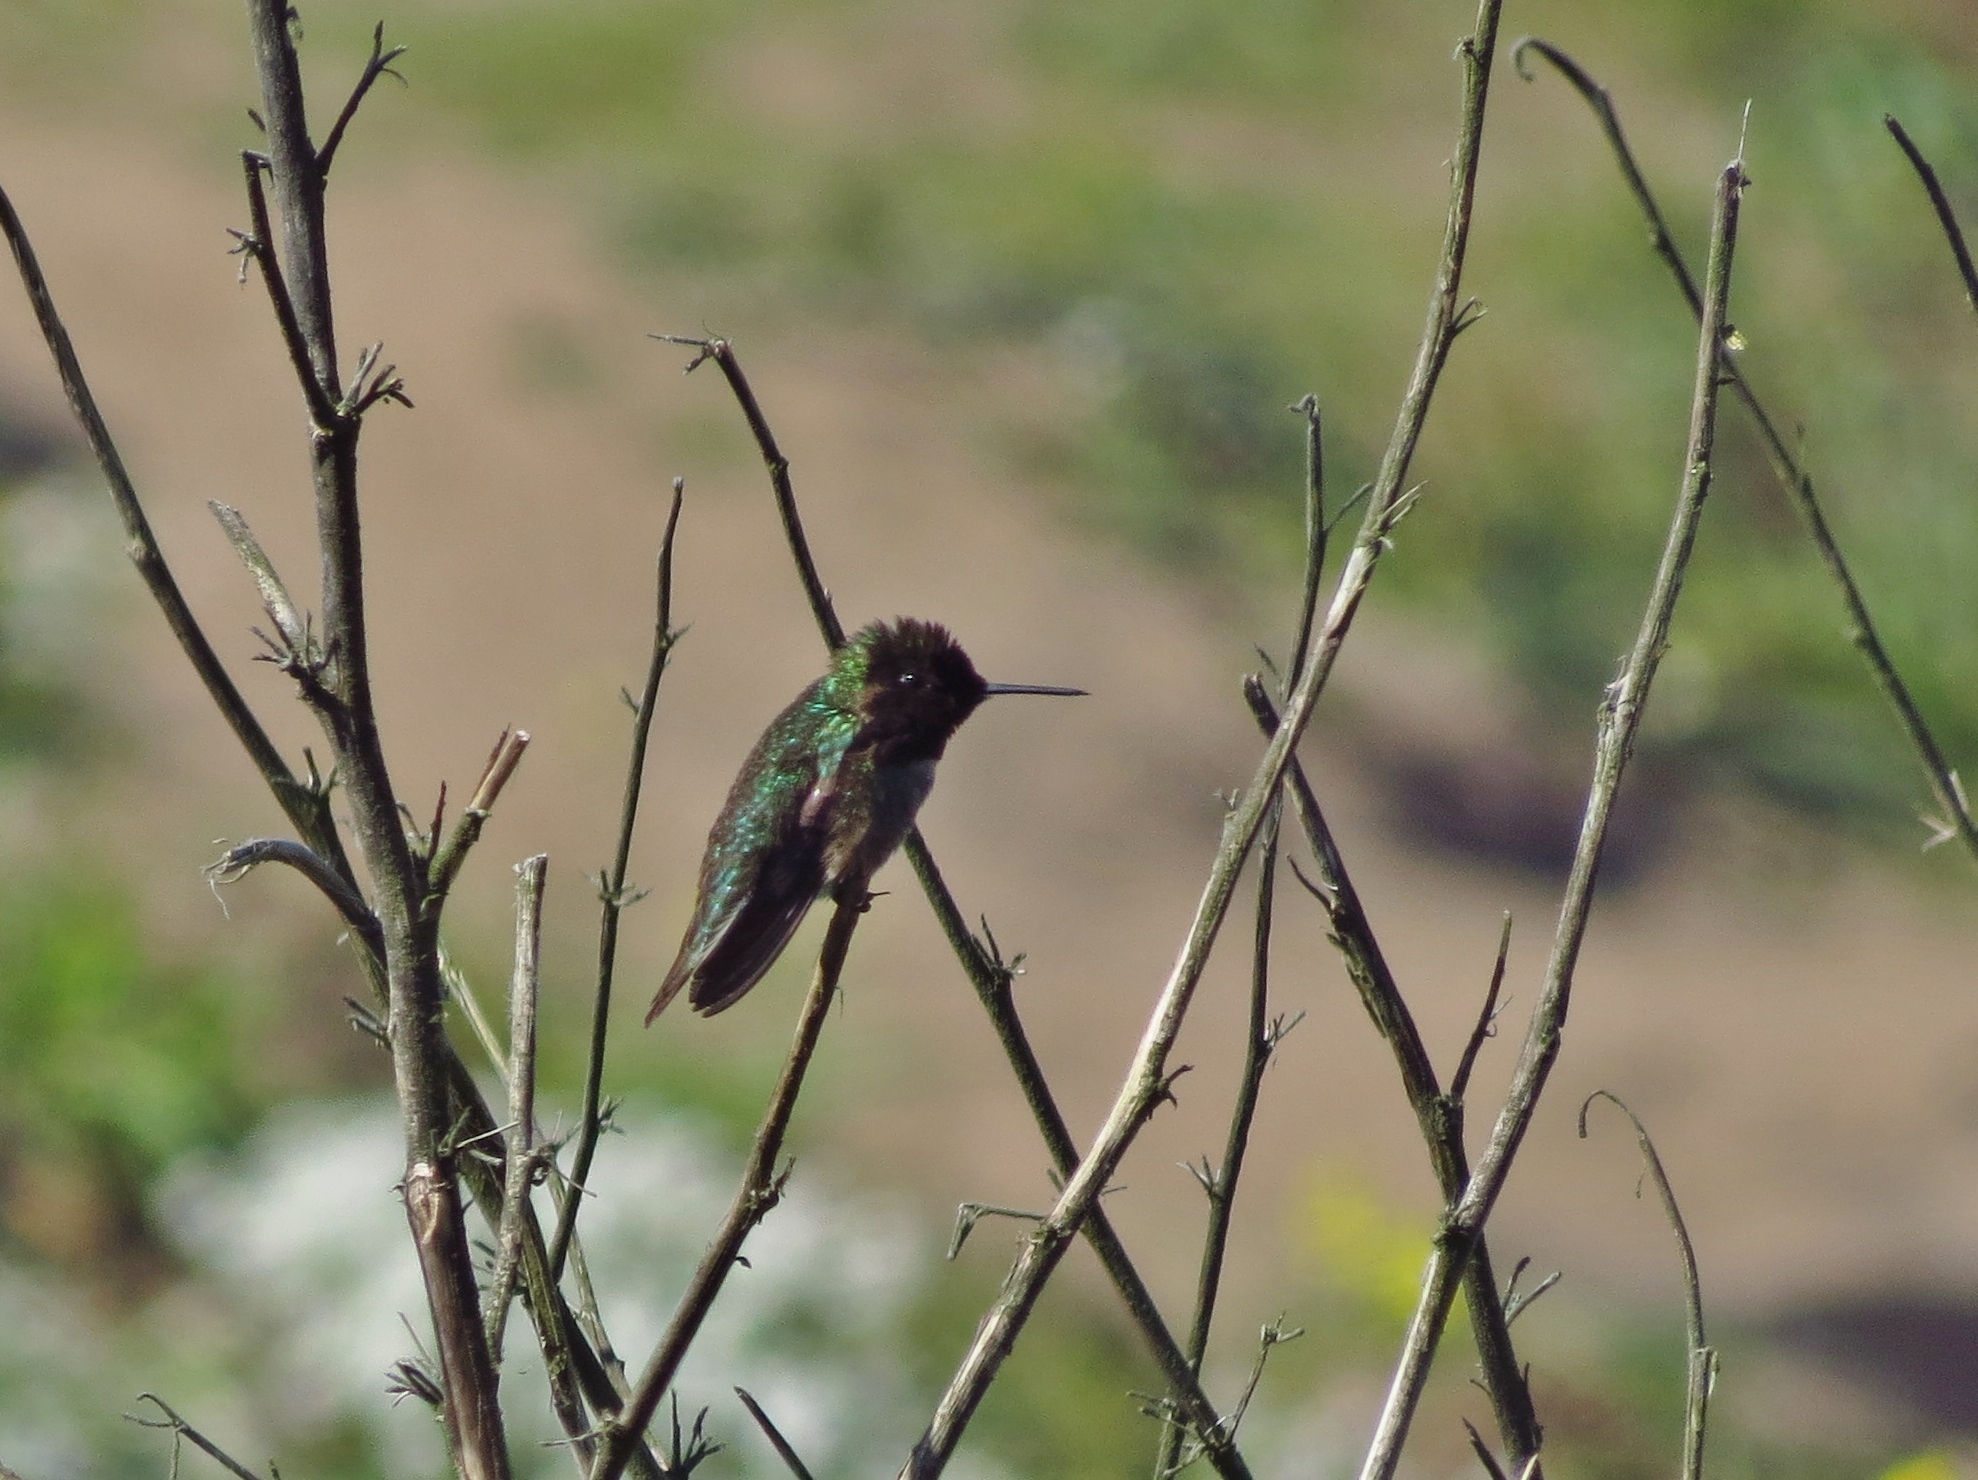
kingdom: Animalia
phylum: Chordata
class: Aves
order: Apodiformes
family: Trochilidae
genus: Calypte
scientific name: Calypte anna
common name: Anna's hummingbird
